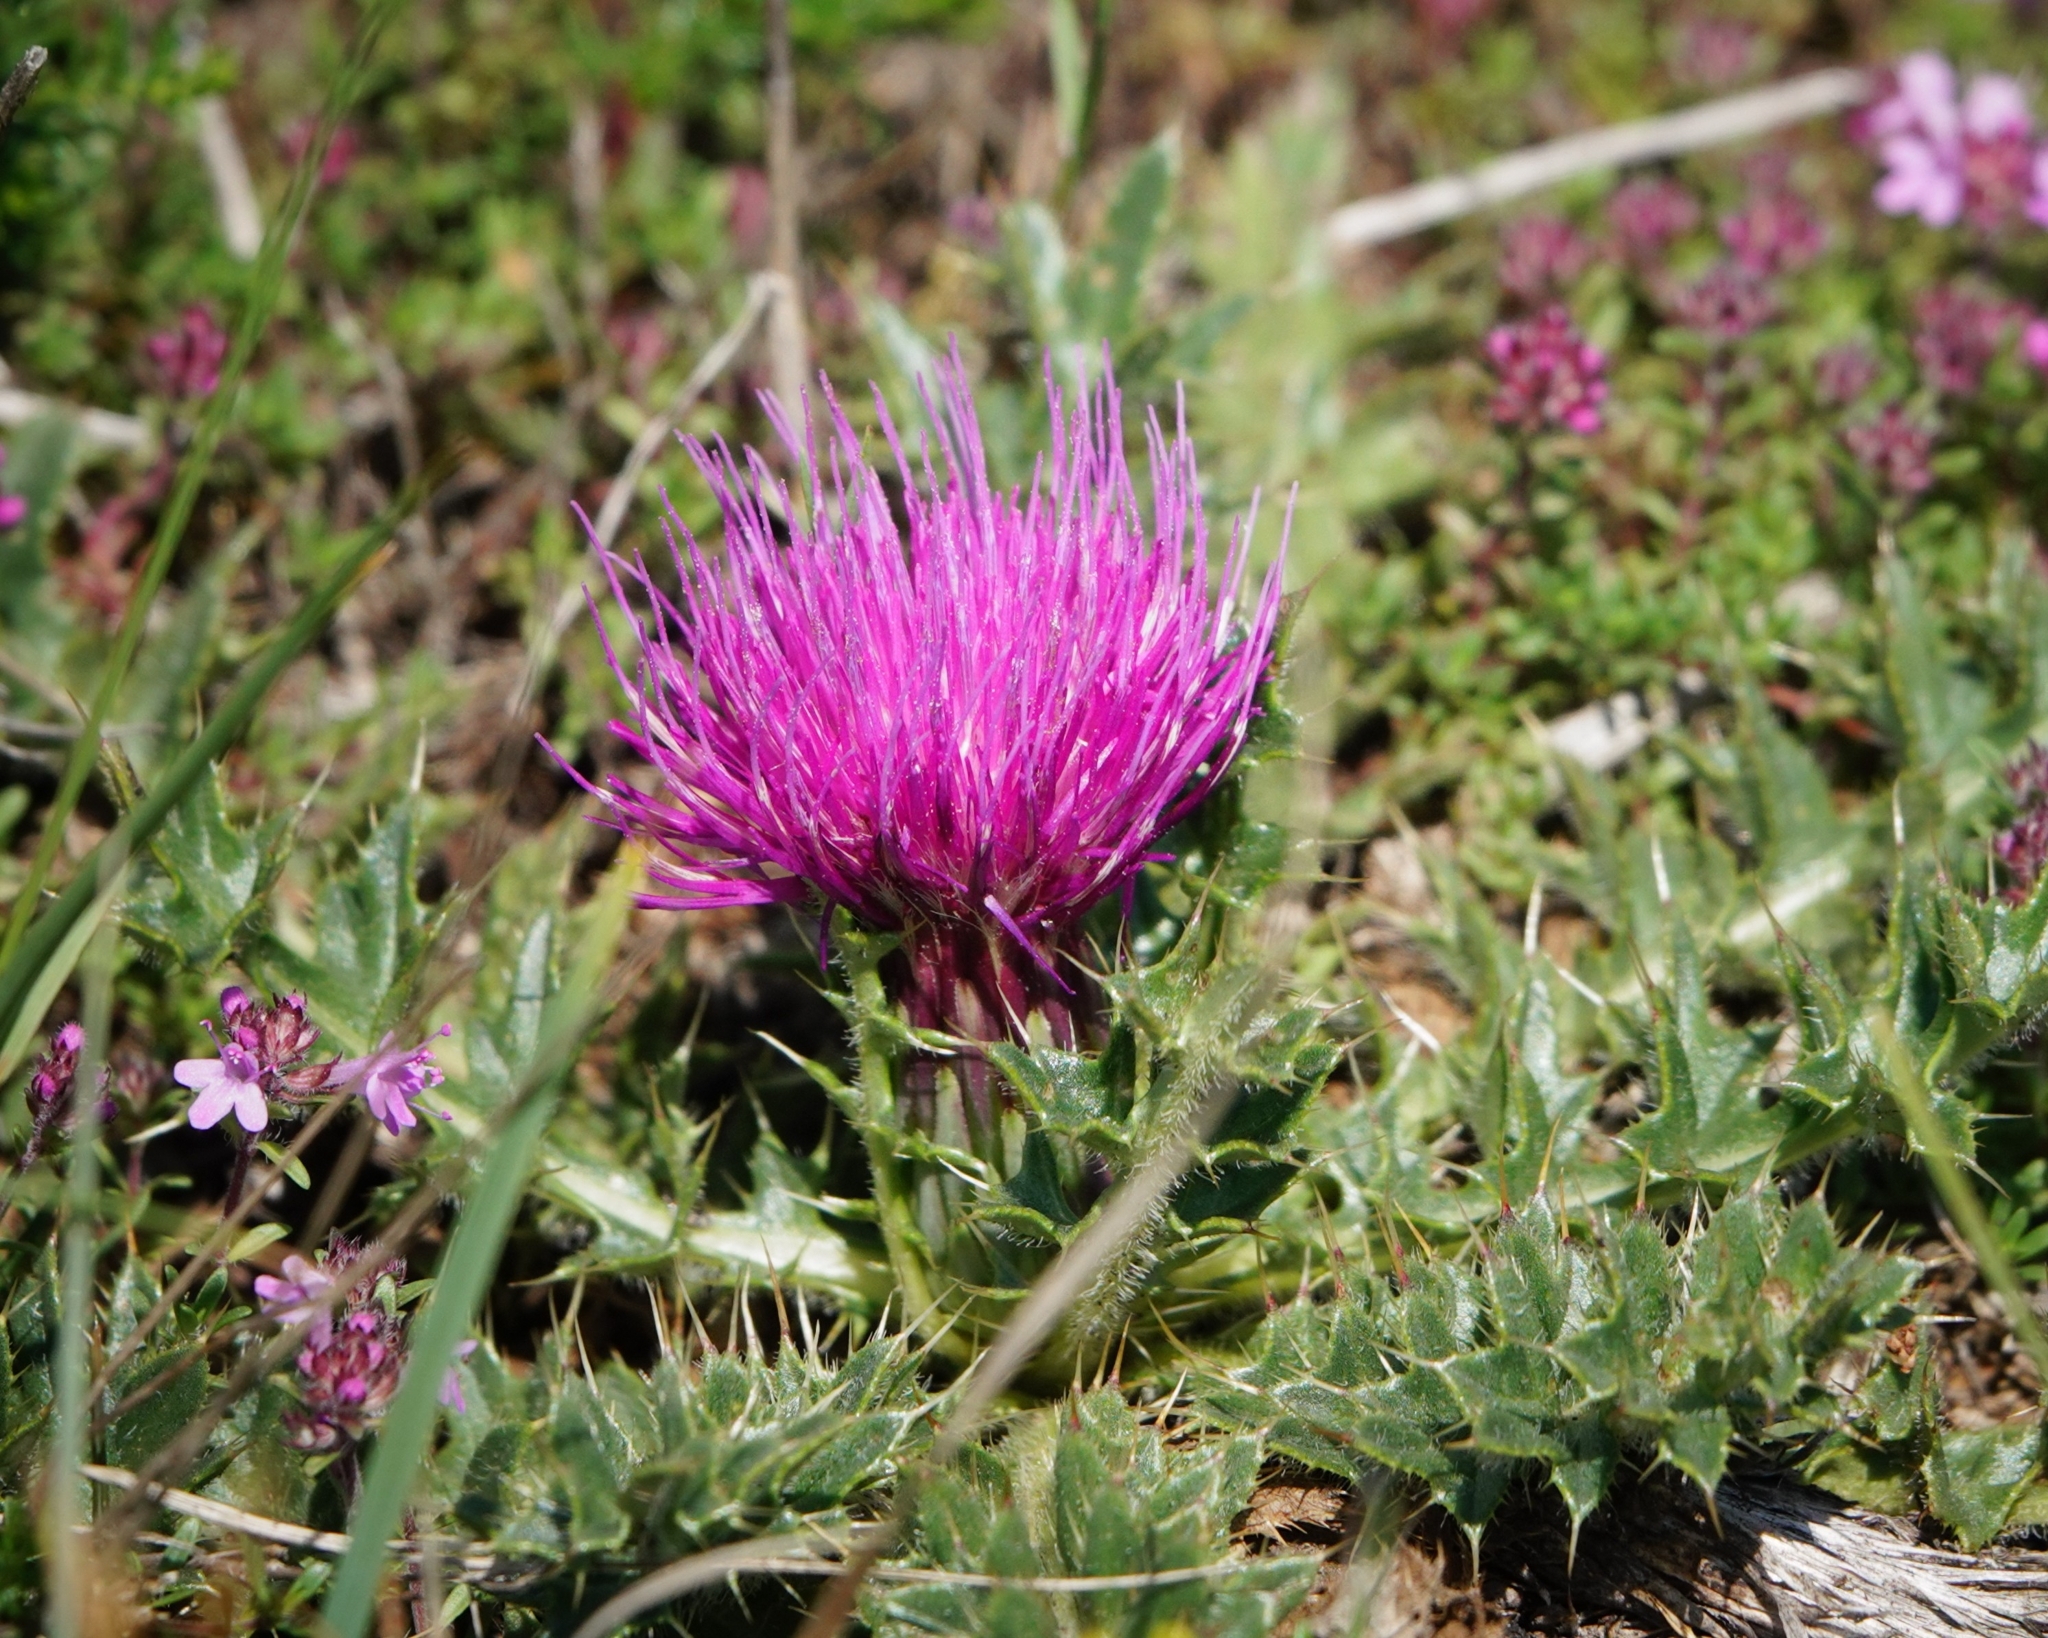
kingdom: Plantae
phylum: Tracheophyta
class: Magnoliopsida
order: Asterales
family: Asteraceae
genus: Cirsium
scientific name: Cirsium acaulon
